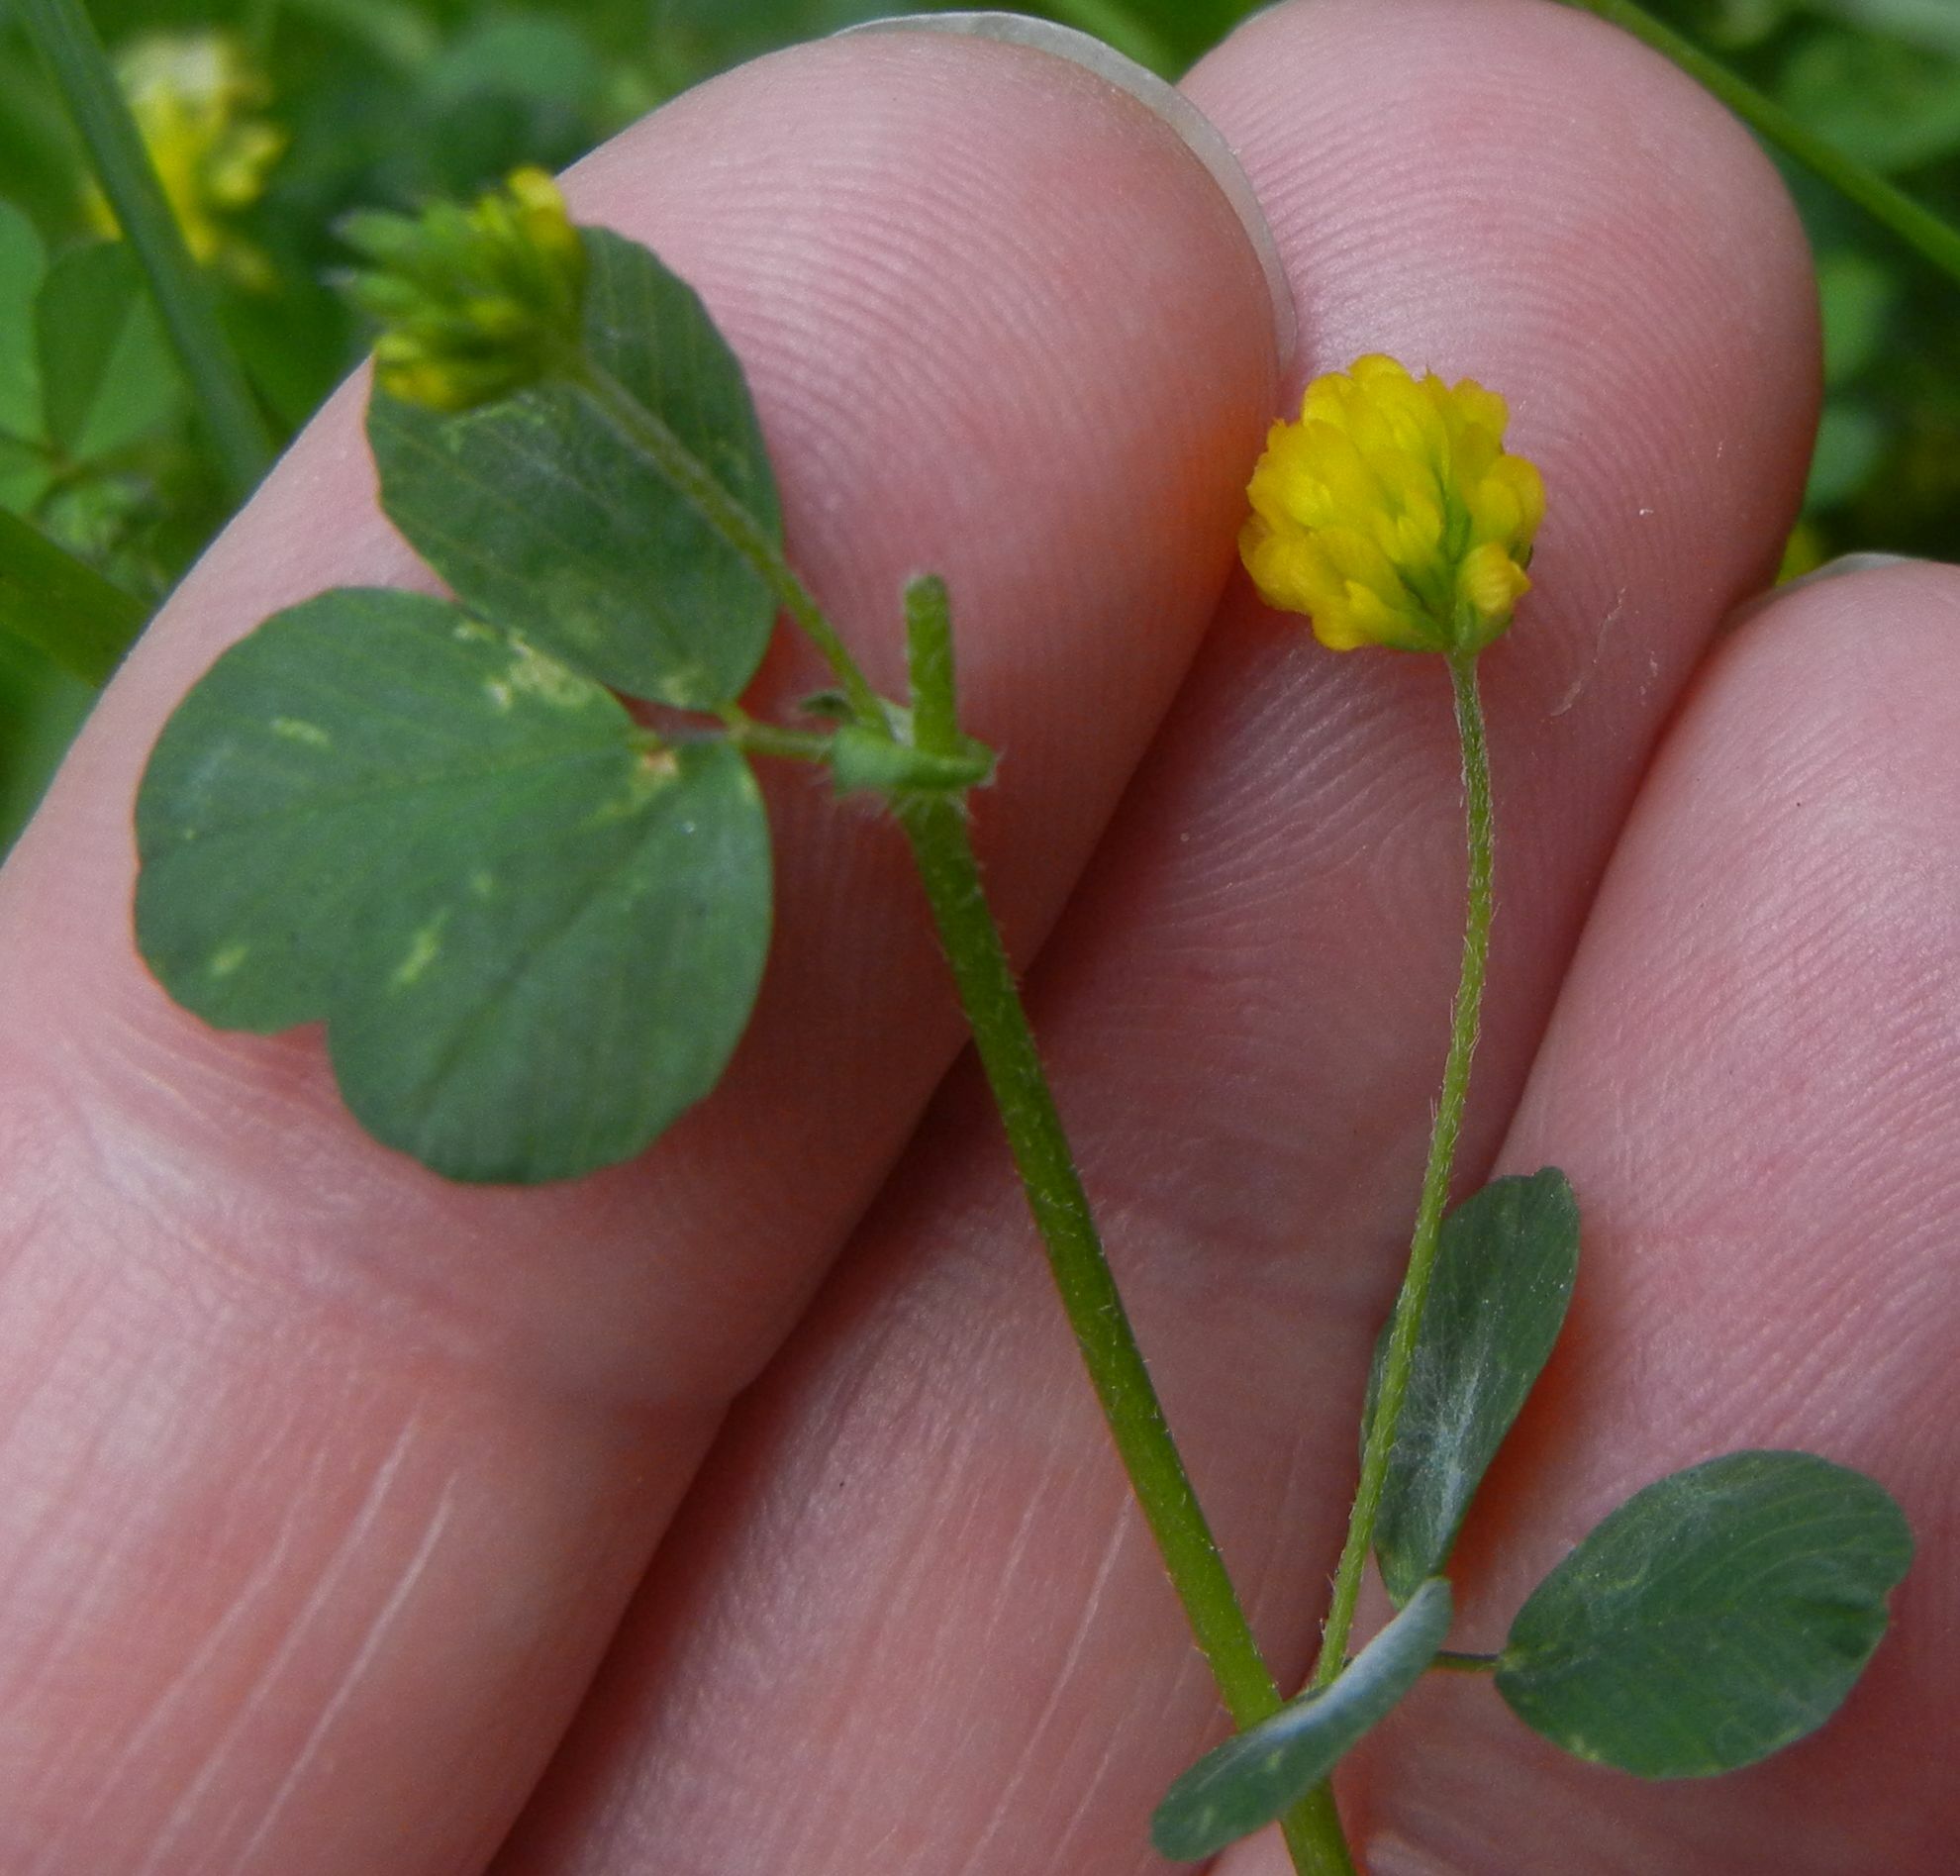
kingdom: Plantae
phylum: Tracheophyta
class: Magnoliopsida
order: Fabales
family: Fabaceae
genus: Trifolium
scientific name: Trifolium dubium
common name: Suckling clover
